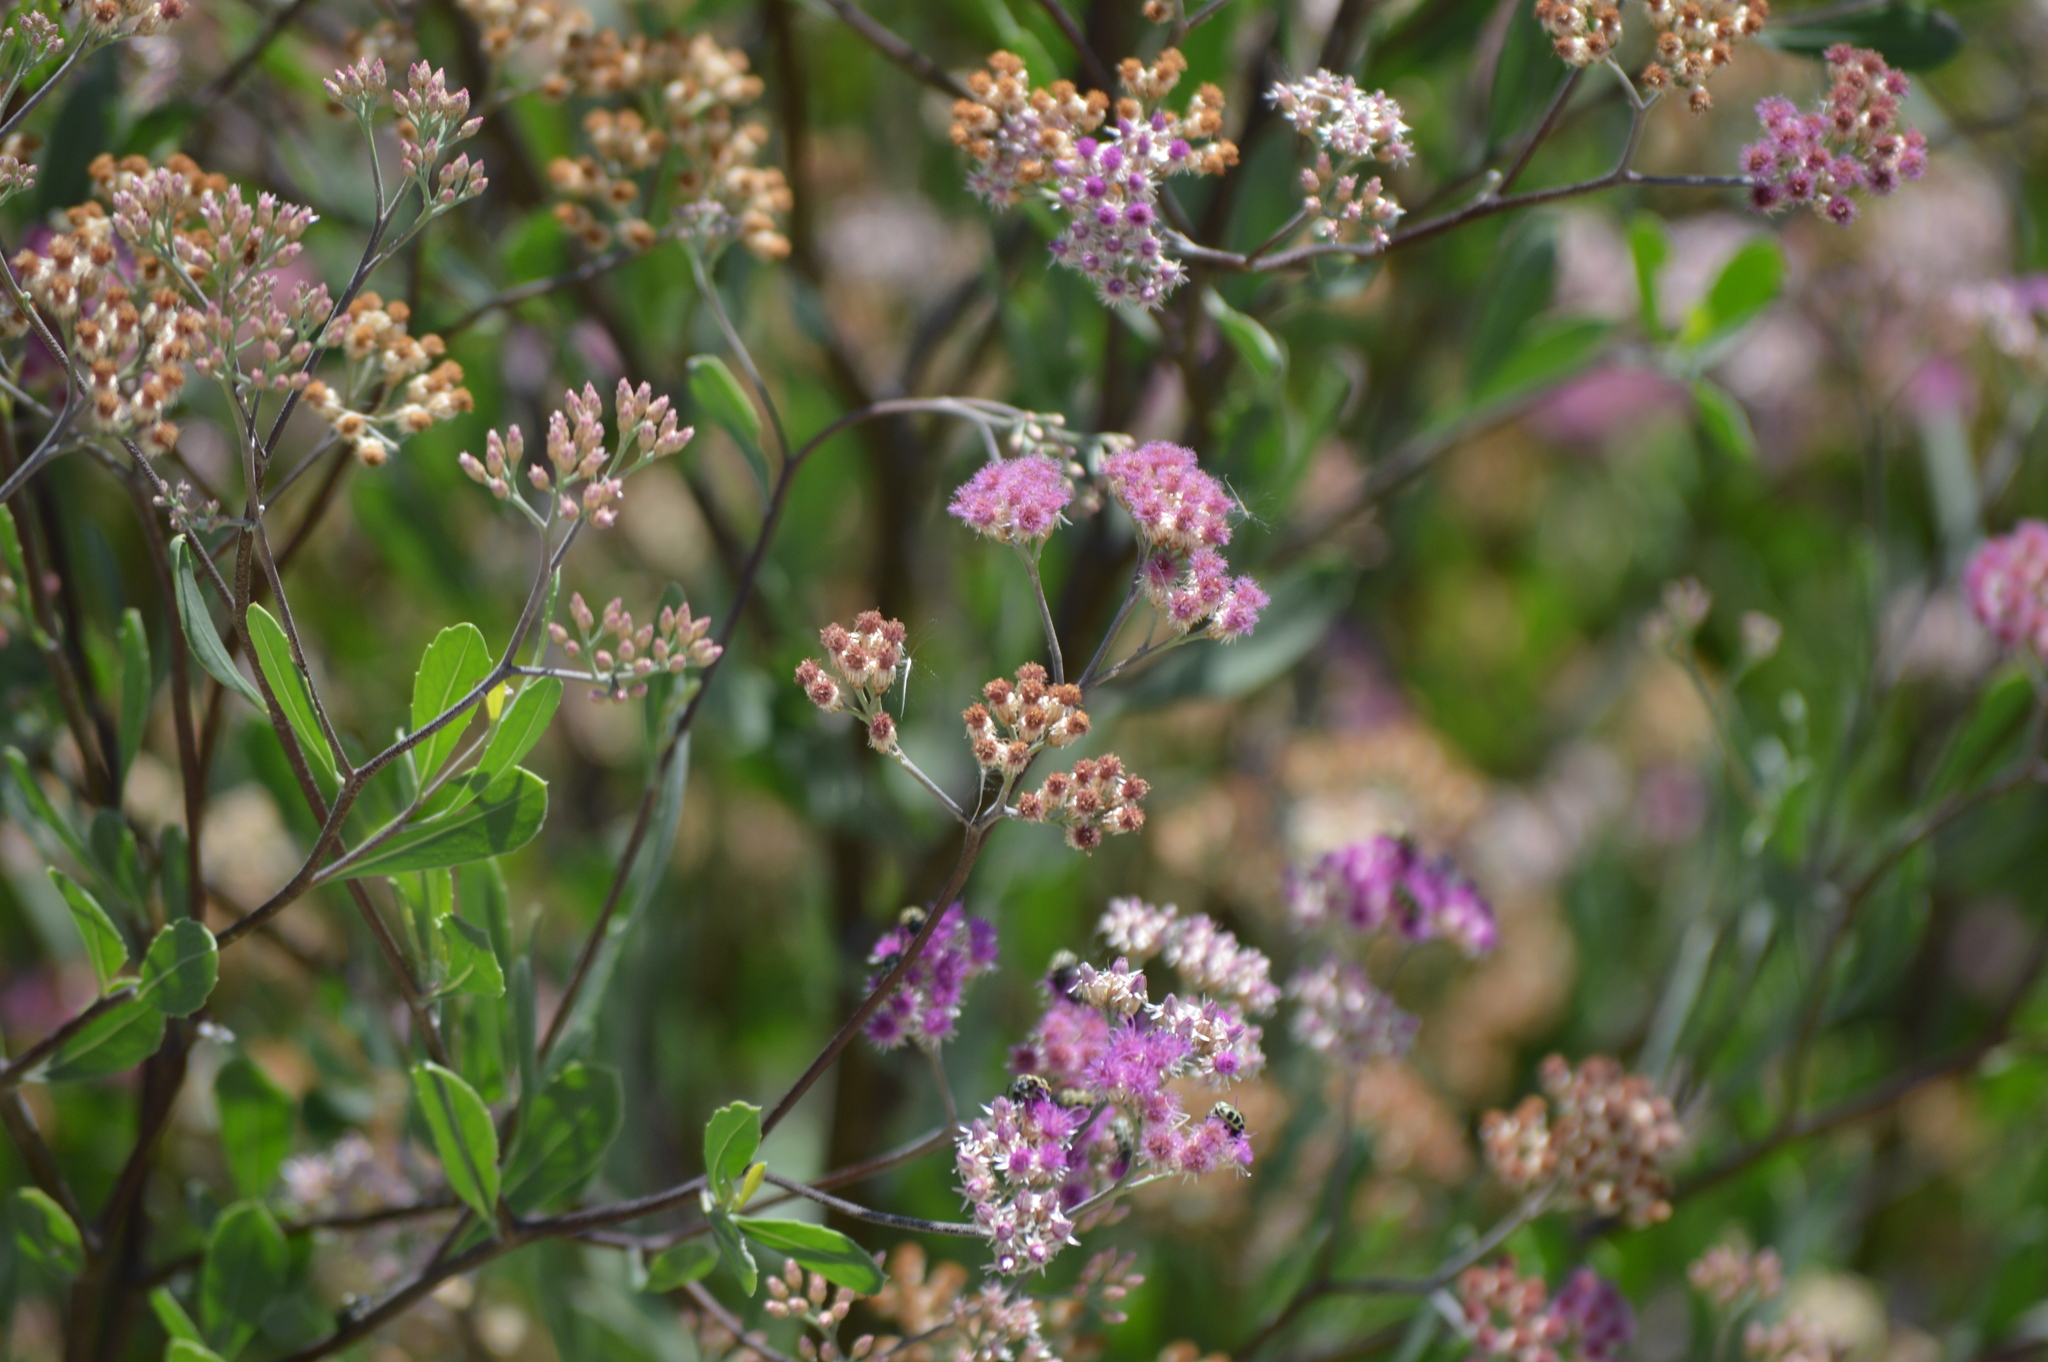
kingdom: Plantae
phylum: Tracheophyta
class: Magnoliopsida
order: Asterales
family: Asteraceae
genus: Tessaria
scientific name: Tessaria integrifolia
